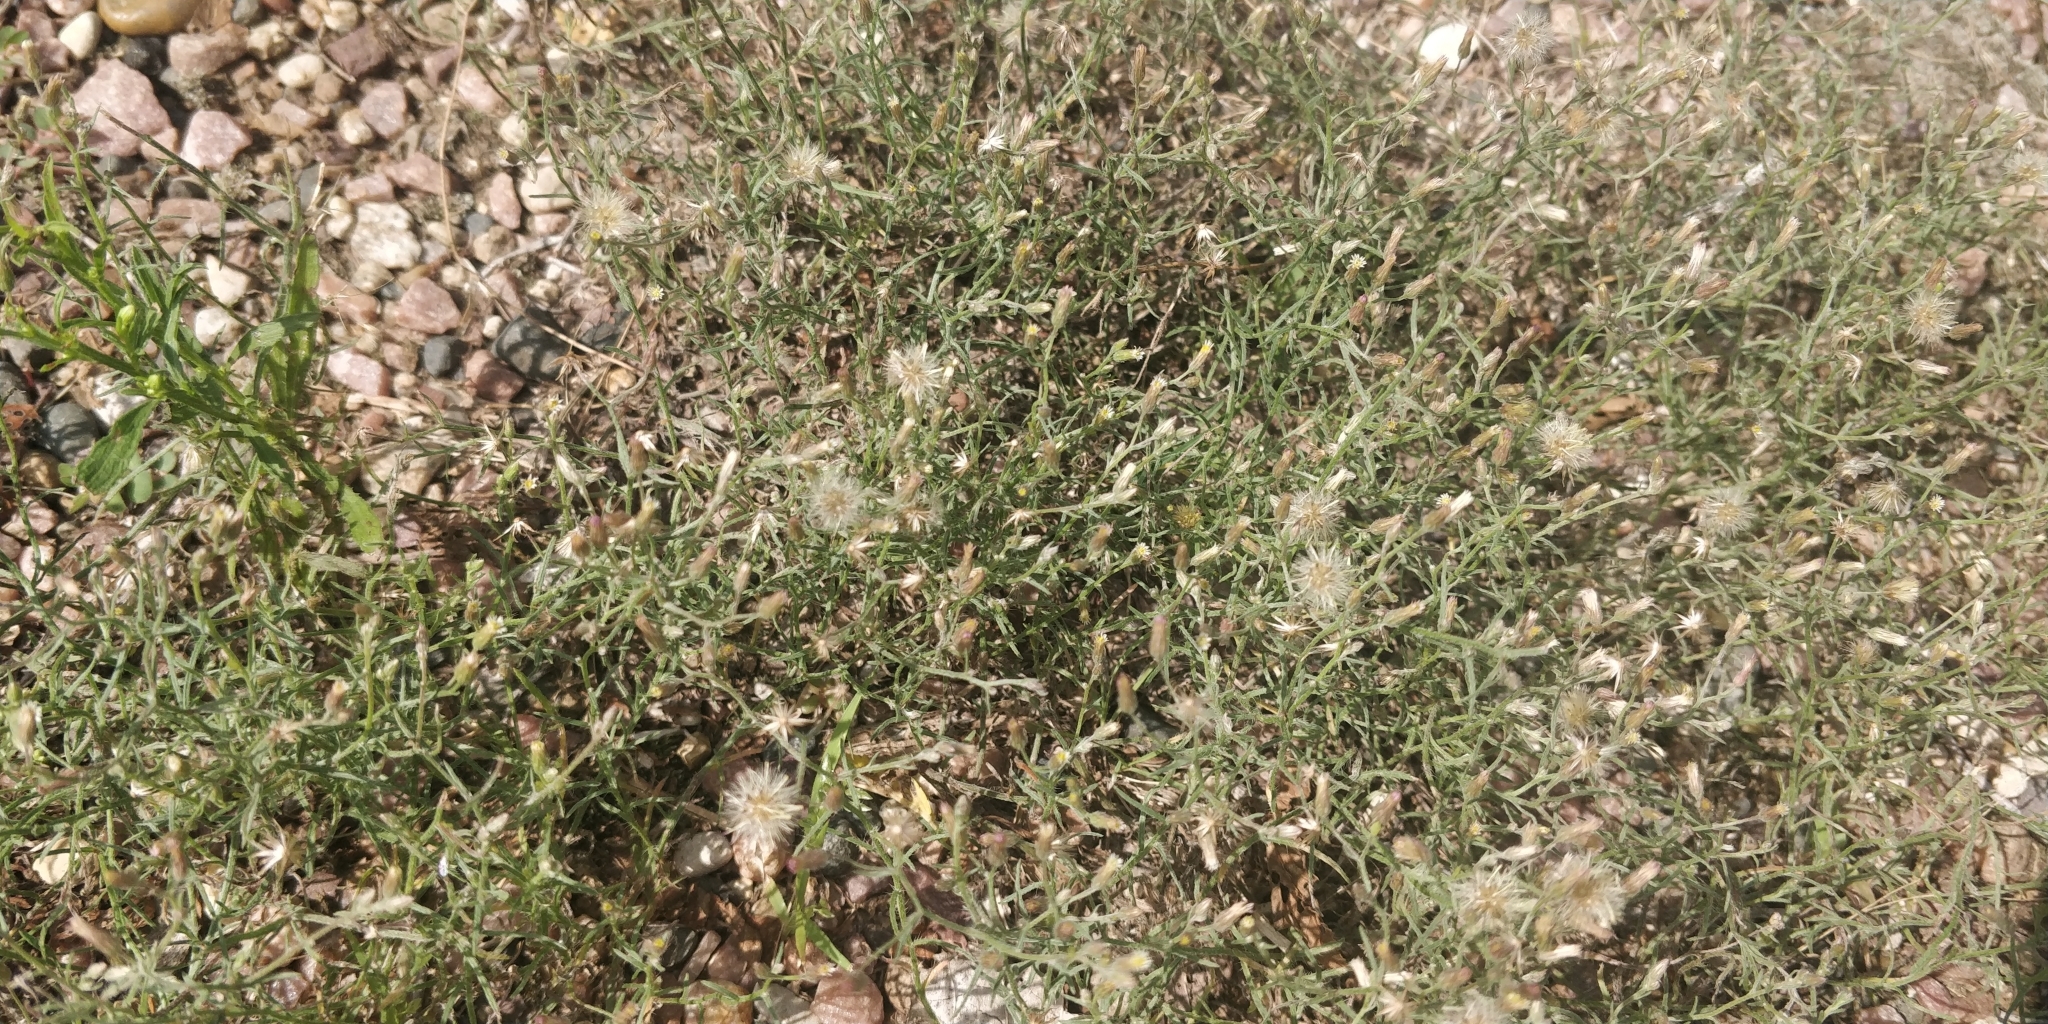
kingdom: Plantae
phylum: Tracheophyta
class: Magnoliopsida
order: Asterales
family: Asteraceae
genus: Erigeron
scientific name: Erigeron divaricatus
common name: Dwarf conyza
